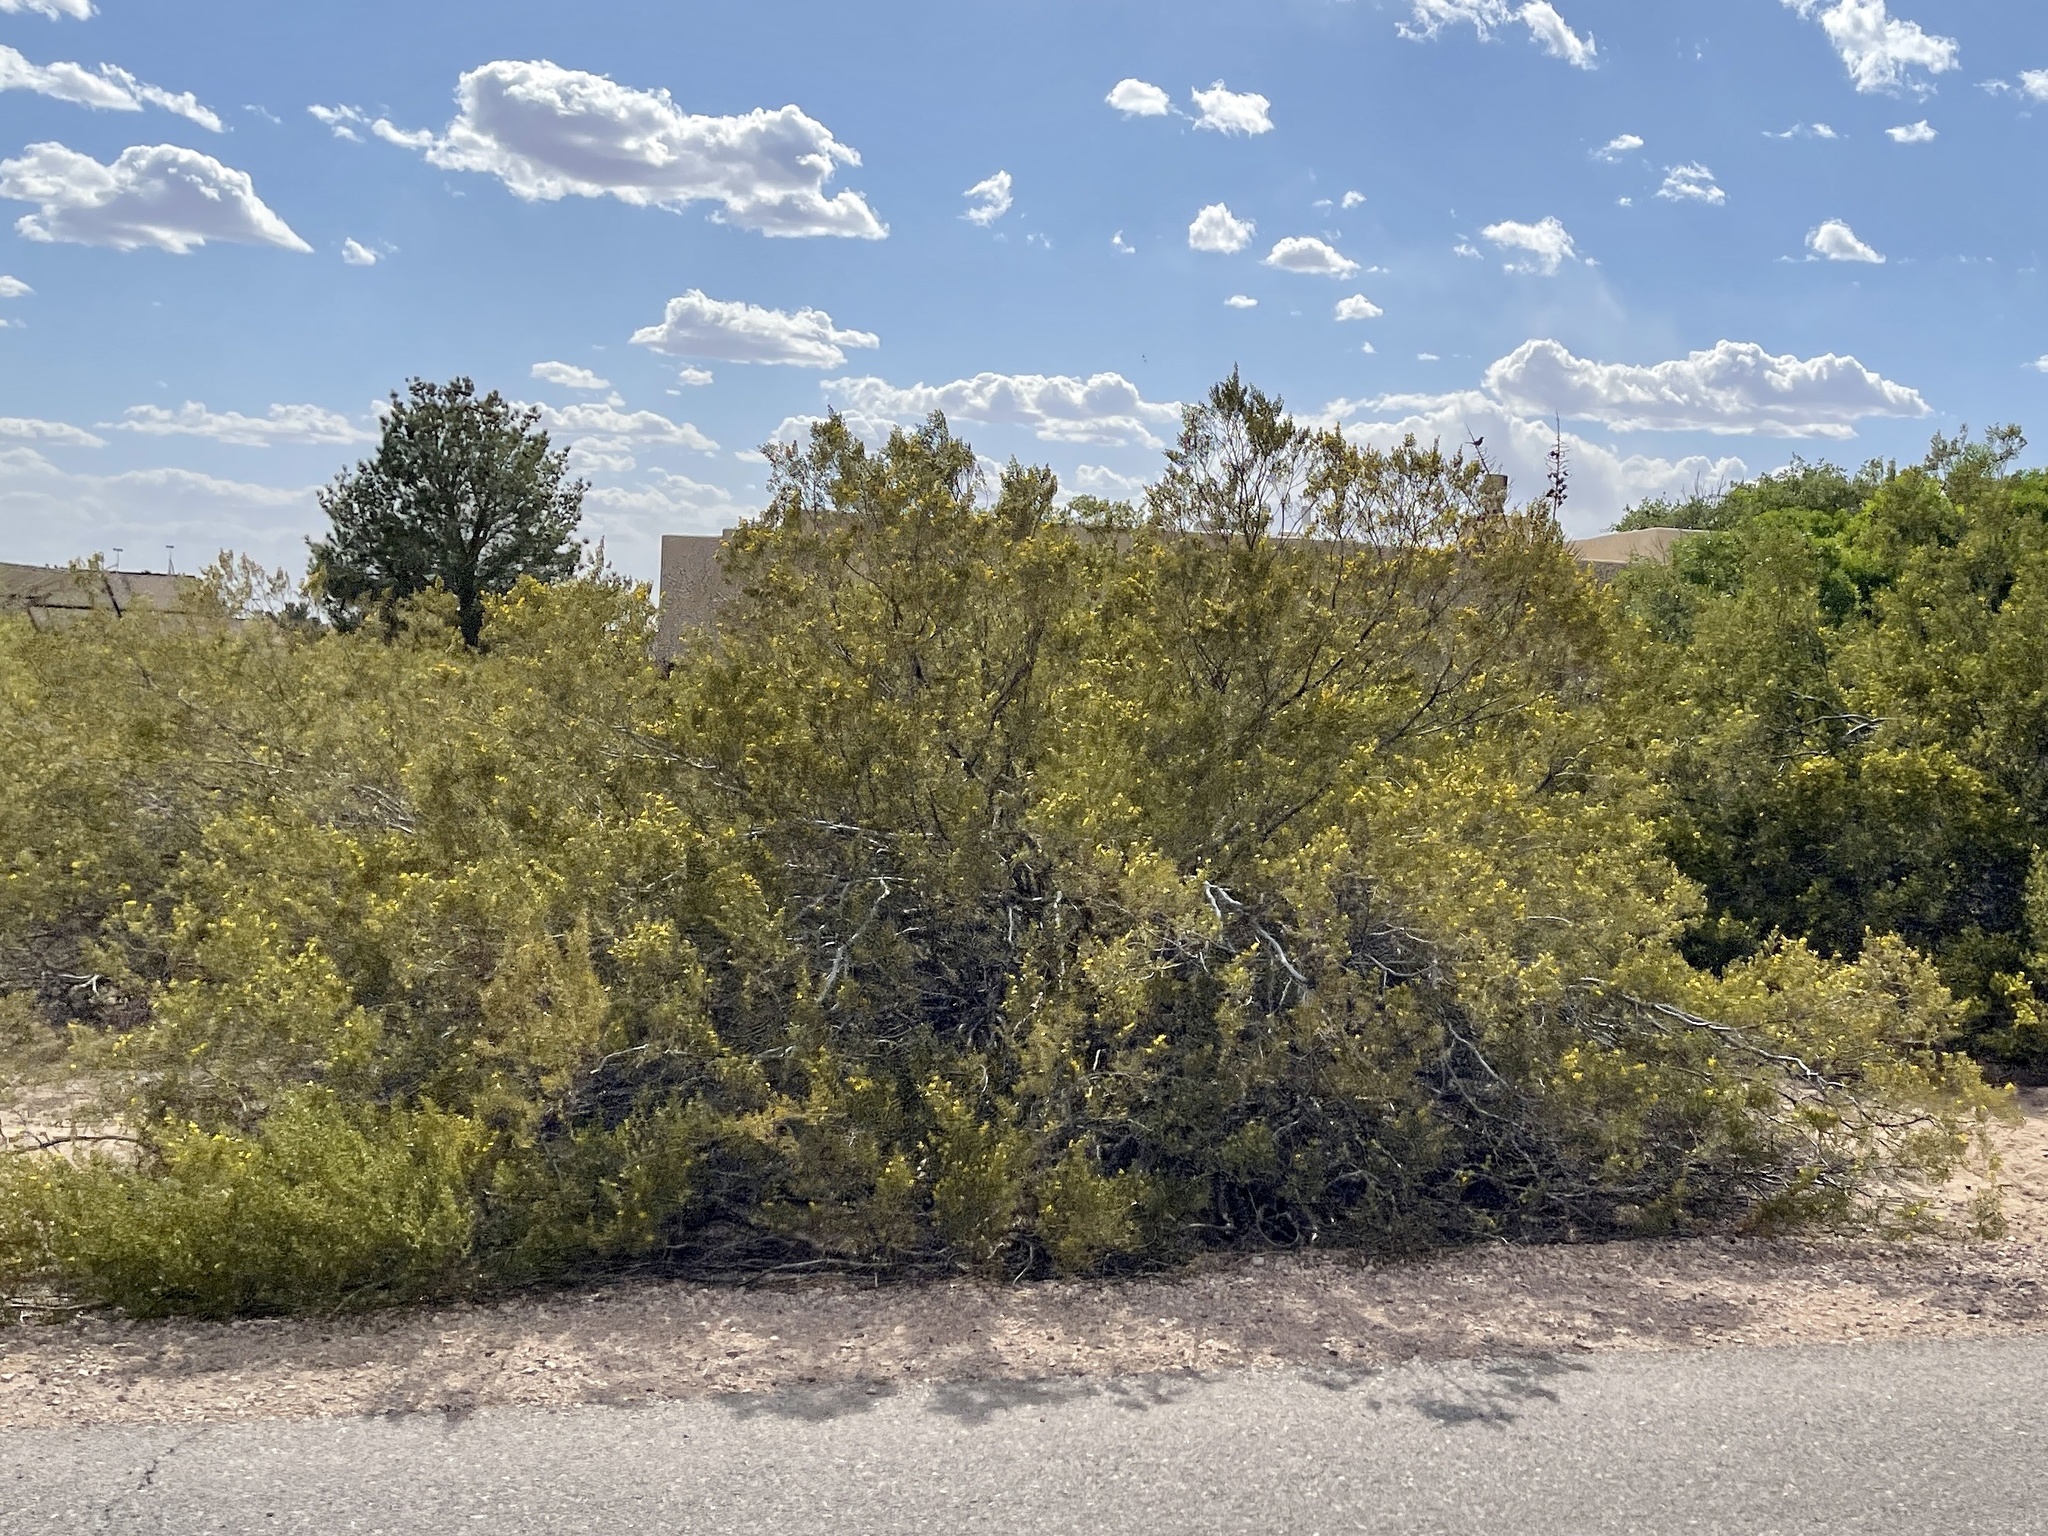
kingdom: Plantae
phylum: Tracheophyta
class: Magnoliopsida
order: Zygophyllales
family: Zygophyllaceae
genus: Larrea
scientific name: Larrea tridentata
